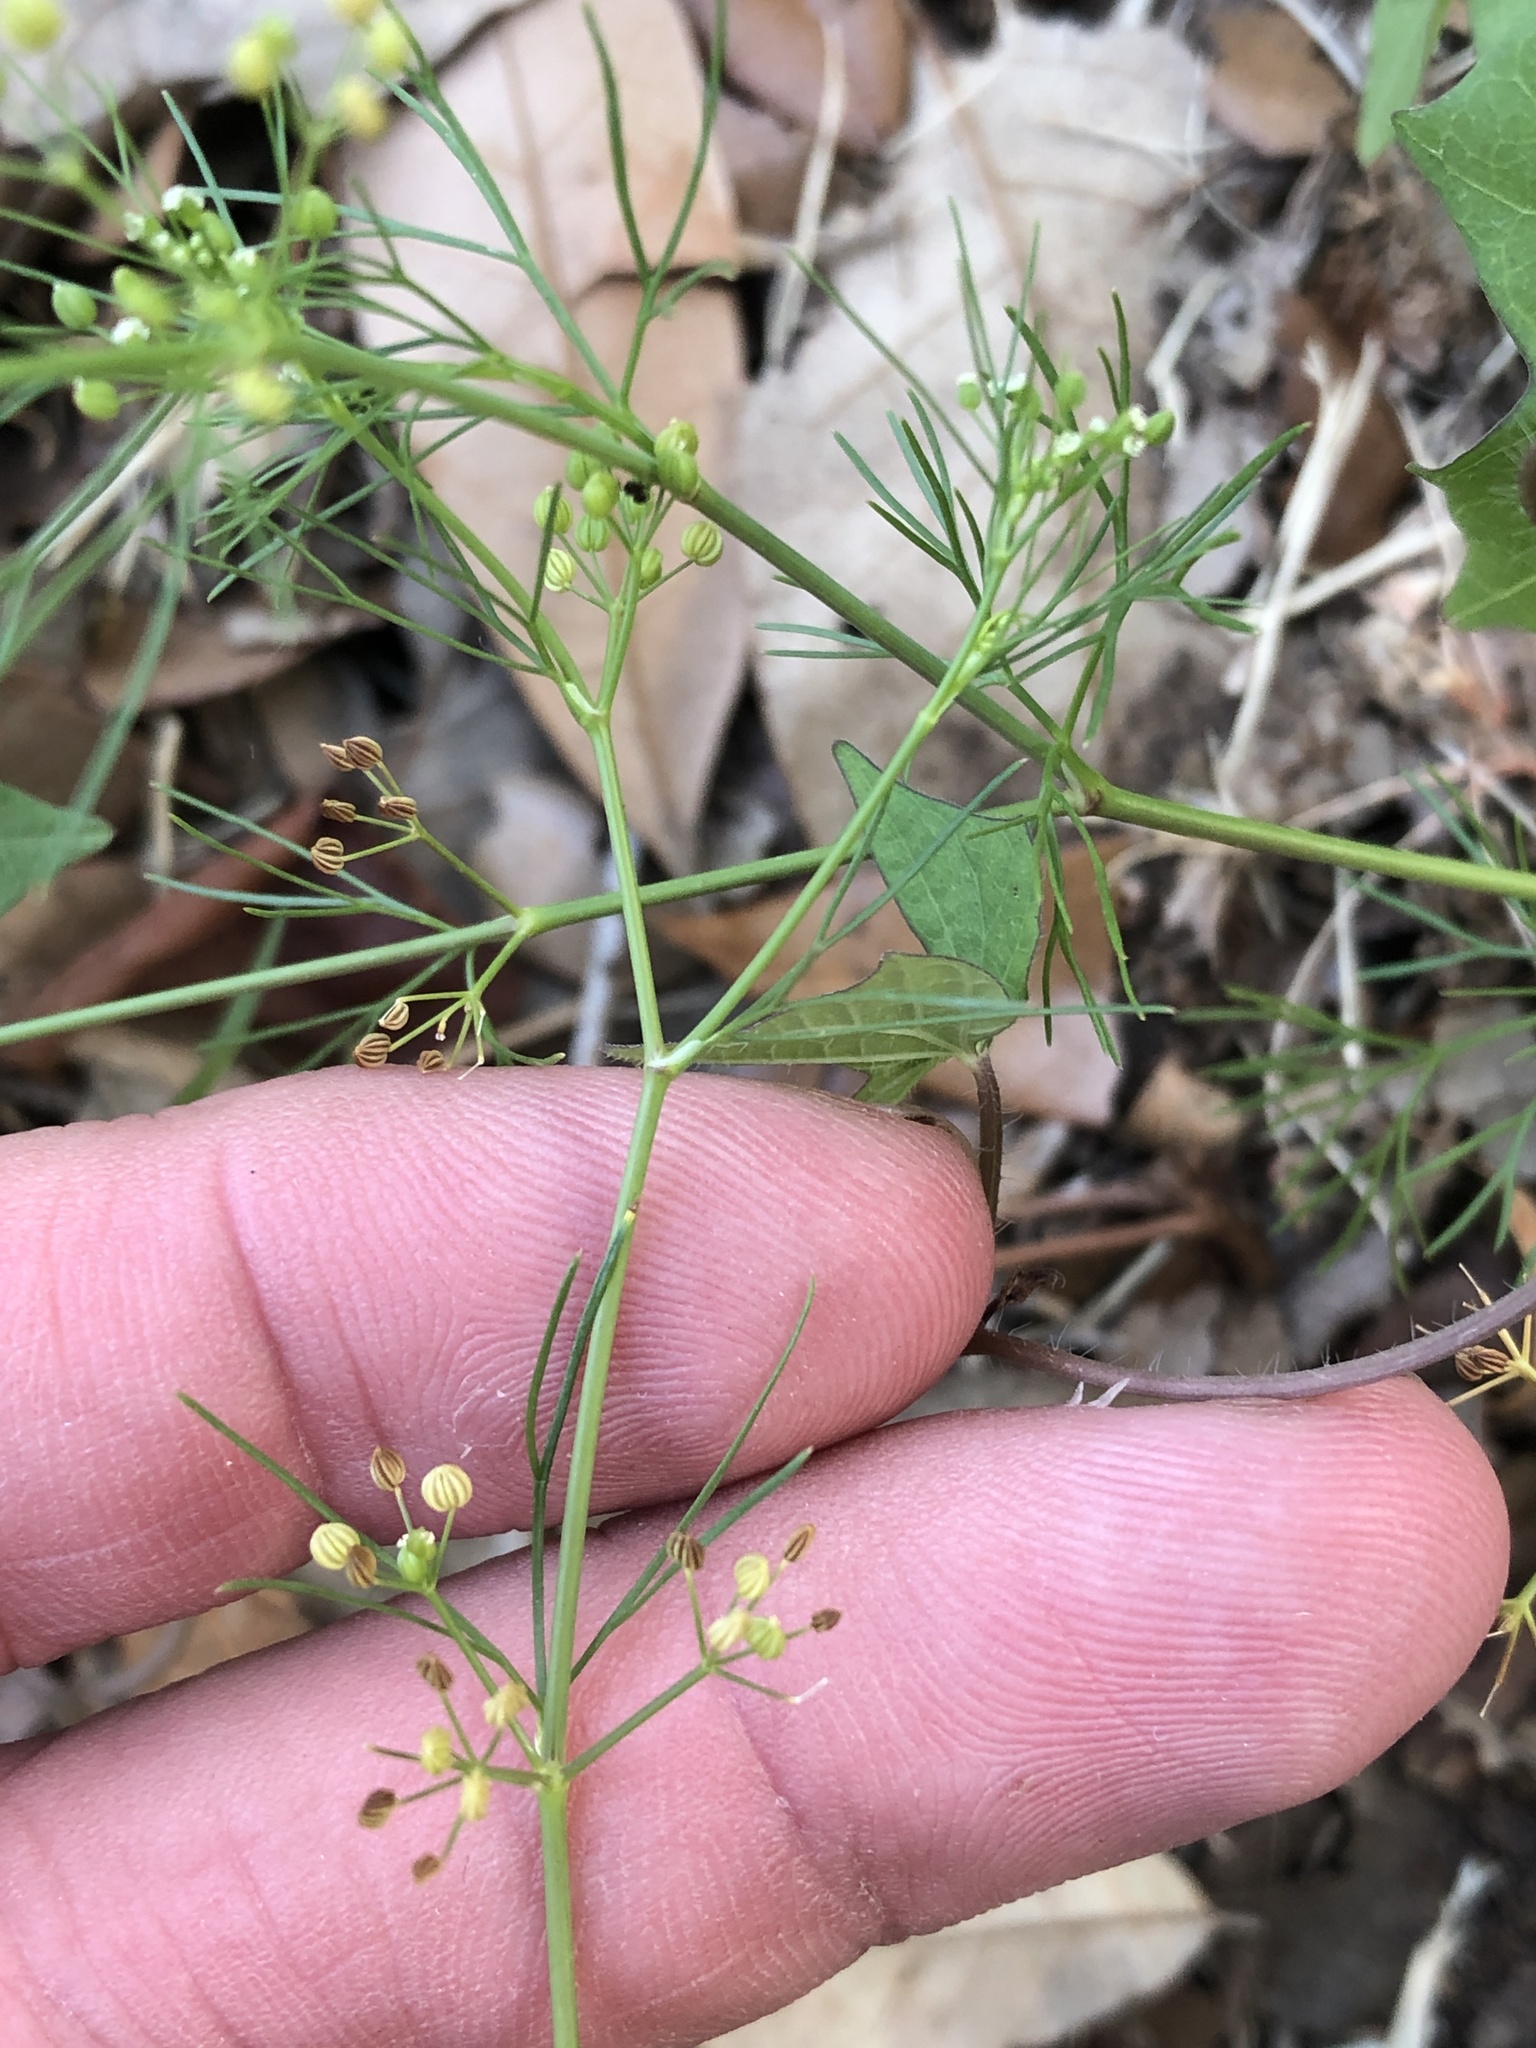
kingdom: Plantae
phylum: Tracheophyta
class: Magnoliopsida
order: Apiales
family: Apiaceae
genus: Cyclospermum
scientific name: Cyclospermum leptophyllum
